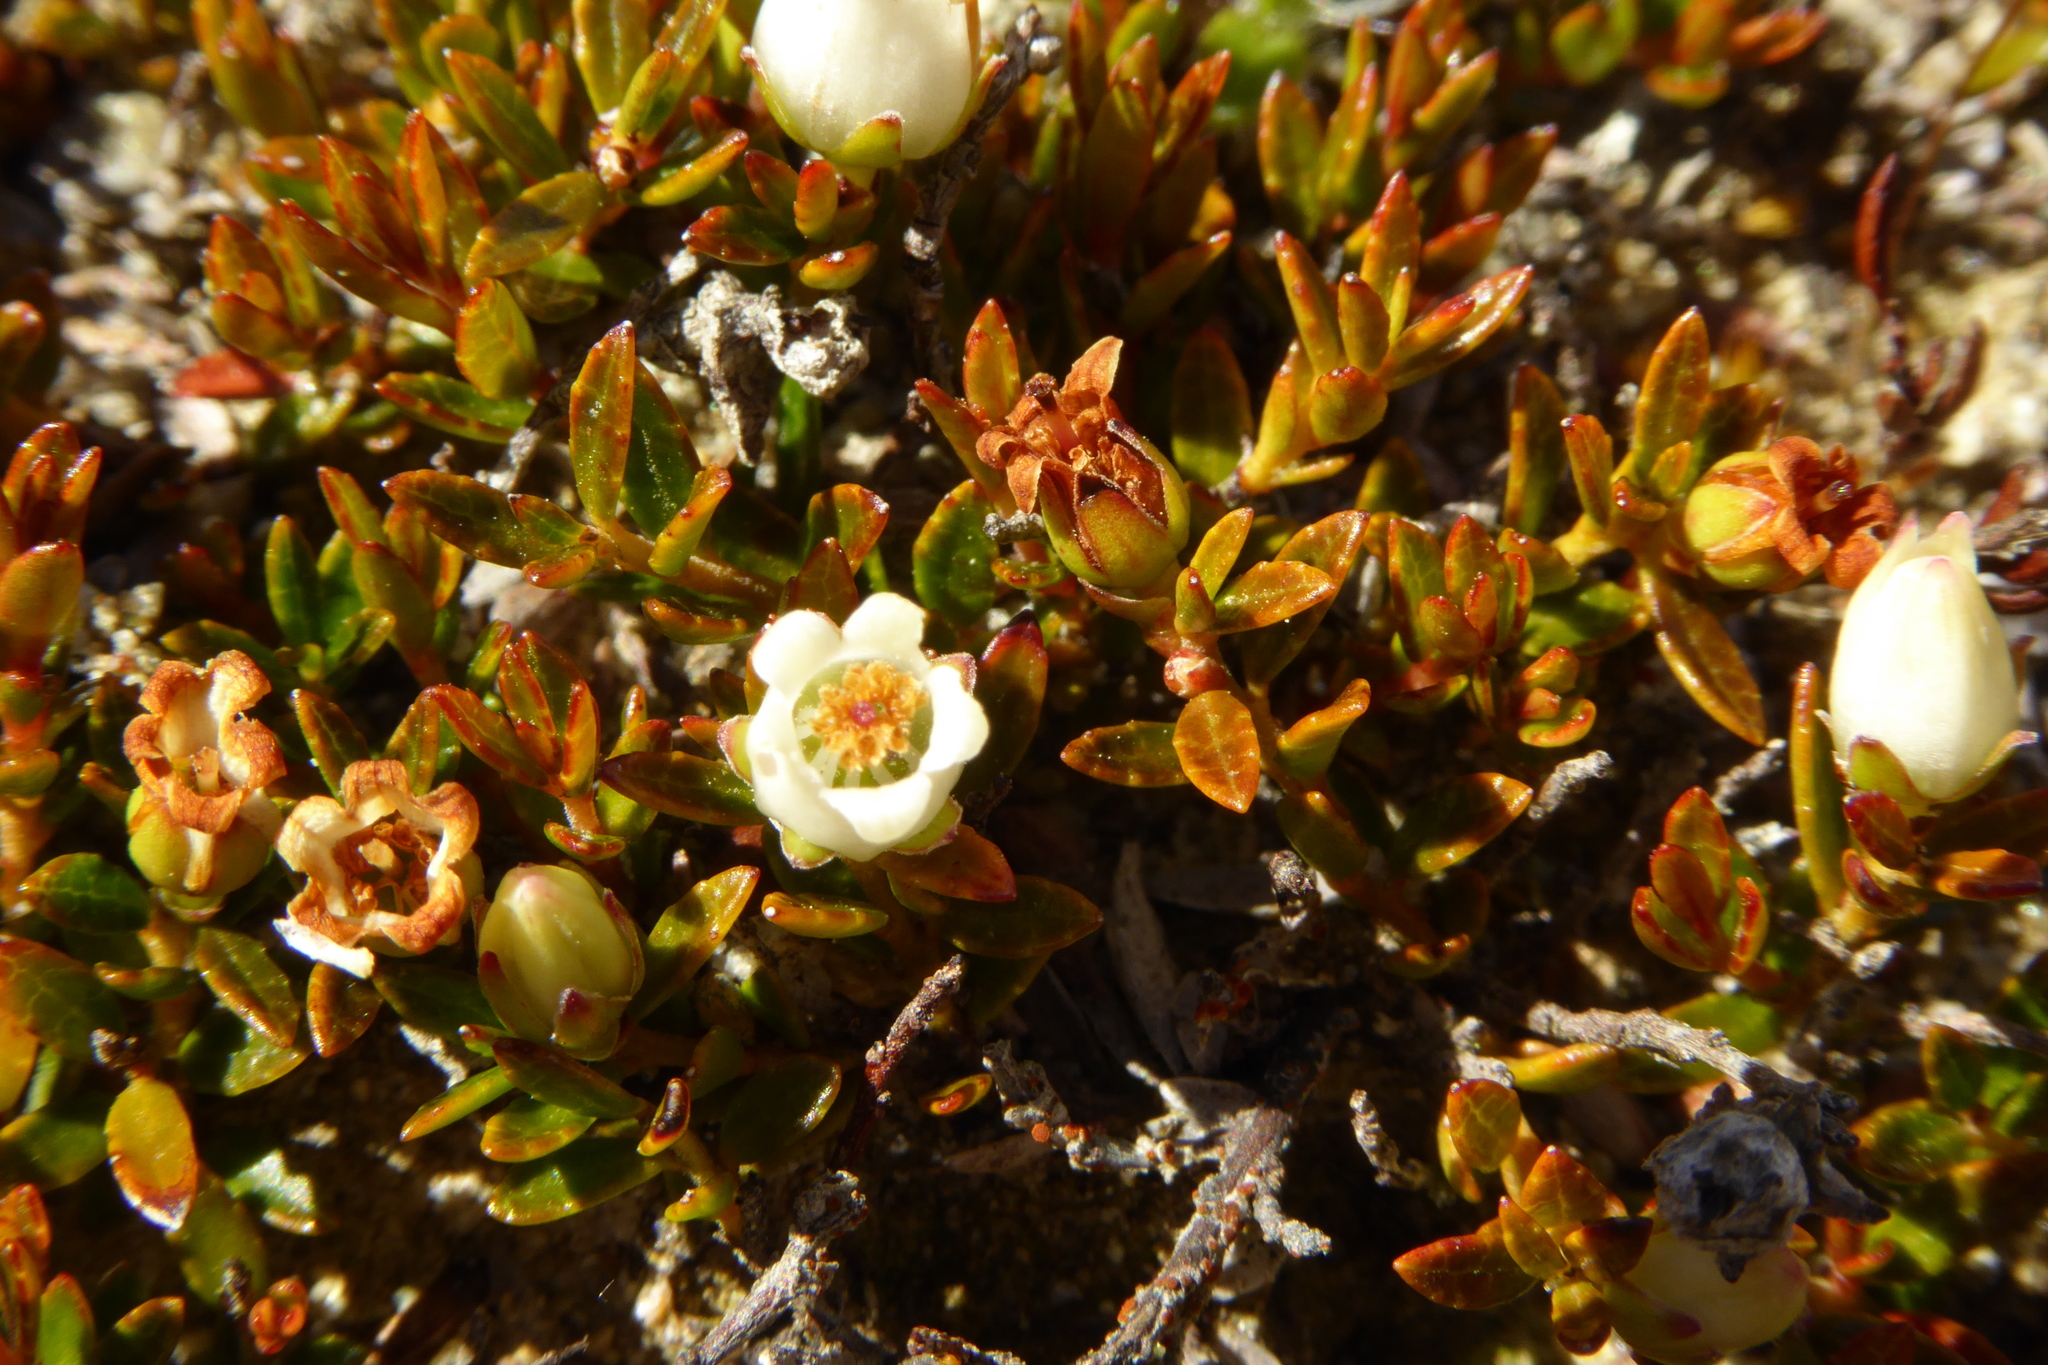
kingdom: Plantae
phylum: Tracheophyta
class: Magnoliopsida
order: Ericales
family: Ericaceae
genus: Gaultheria
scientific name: Gaultheria parvula
